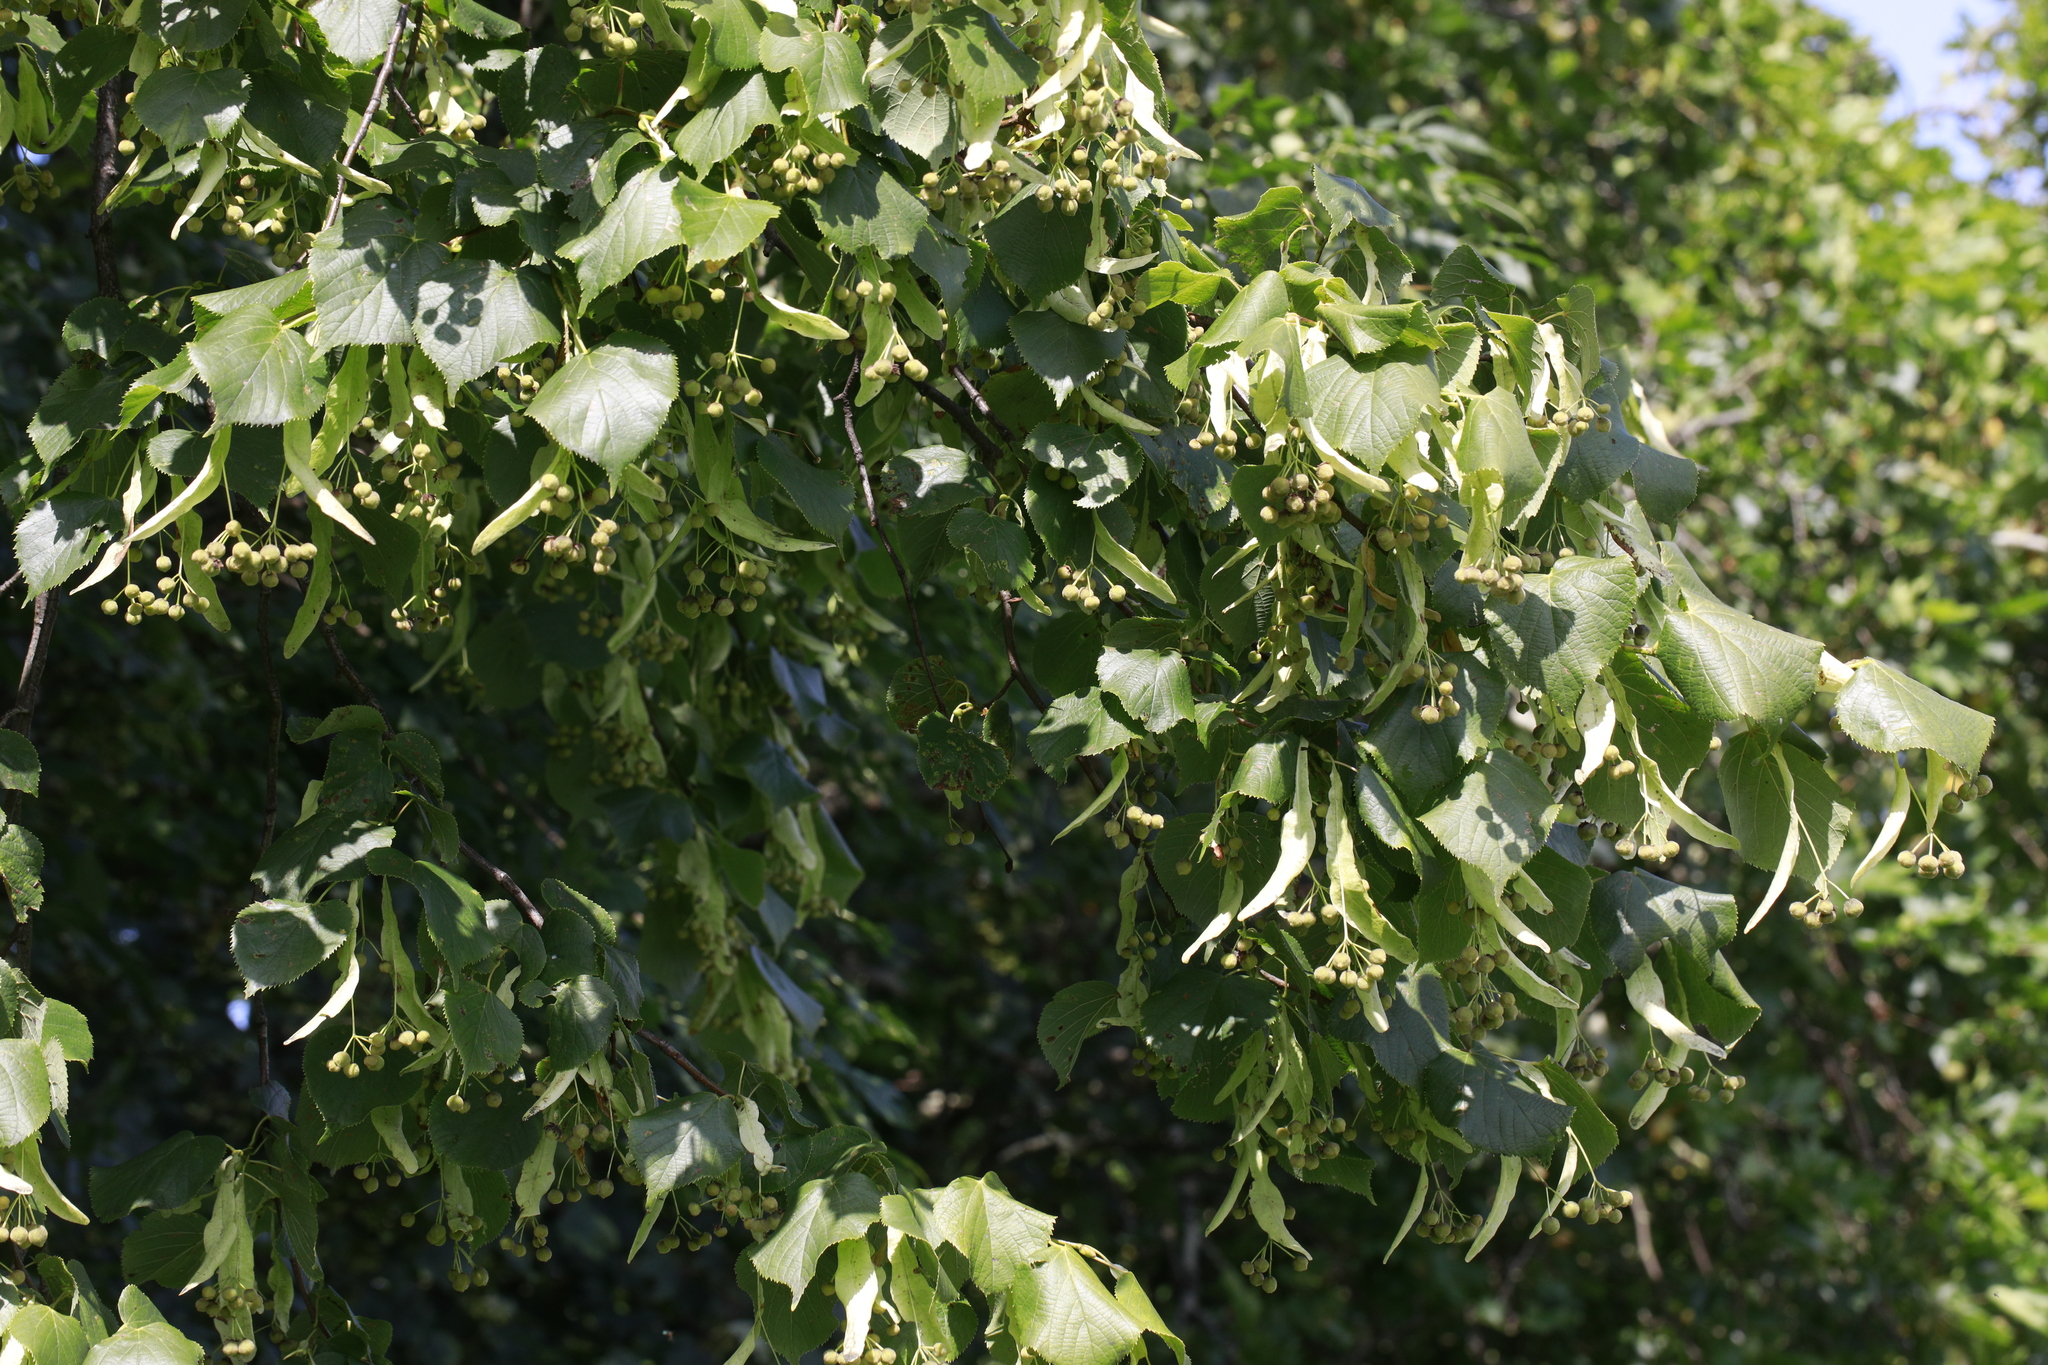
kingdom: Plantae
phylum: Tracheophyta
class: Magnoliopsida
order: Malvales
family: Malvaceae
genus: Tilia
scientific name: Tilia europaea
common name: European linden
